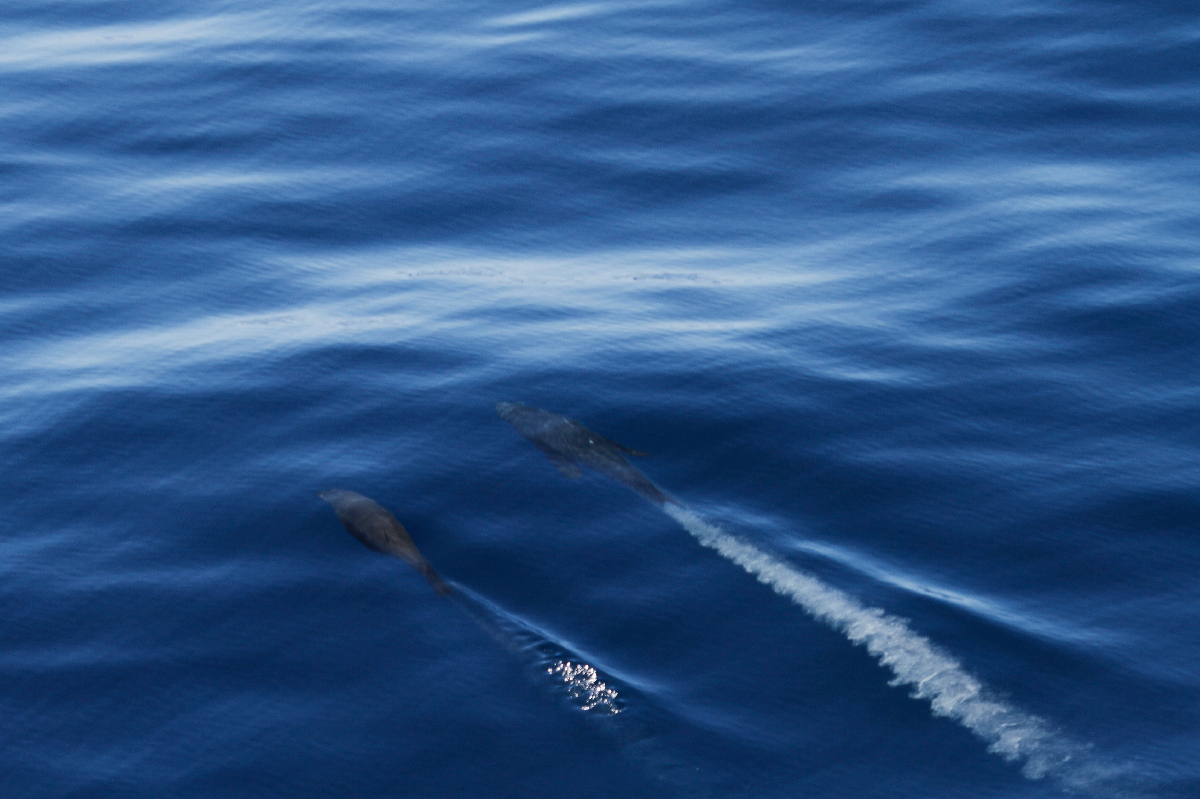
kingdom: Animalia
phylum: Chordata
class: Mammalia
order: Carnivora
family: Otariidae
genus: Arctocephalus
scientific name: Arctocephalus philippii
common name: Juan fernández fur seal
